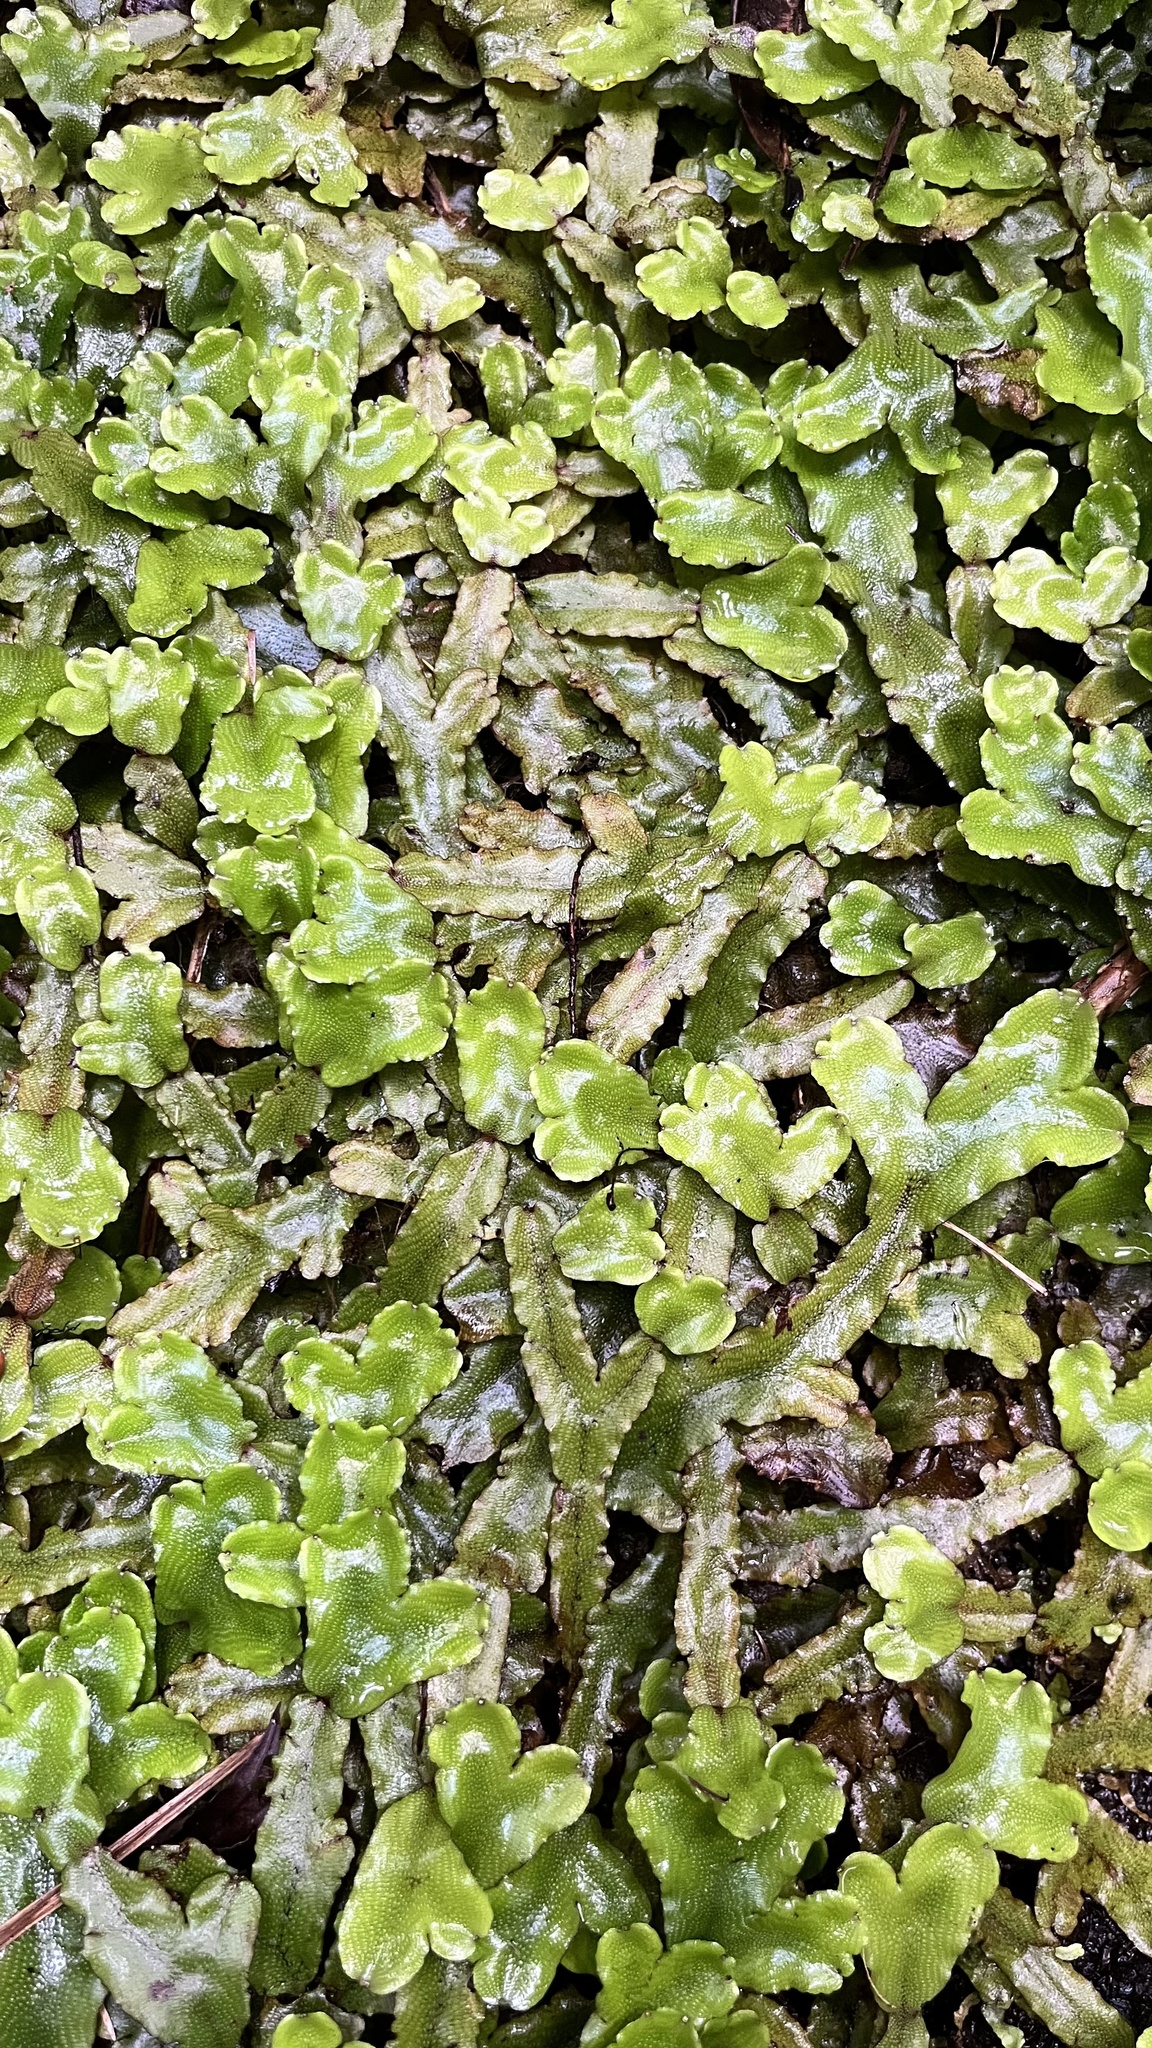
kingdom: Plantae
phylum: Marchantiophyta
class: Marchantiopsida
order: Marchantiales
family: Conocephalaceae
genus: Conocephalum
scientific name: Conocephalum conicum
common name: Great scented liverwort
